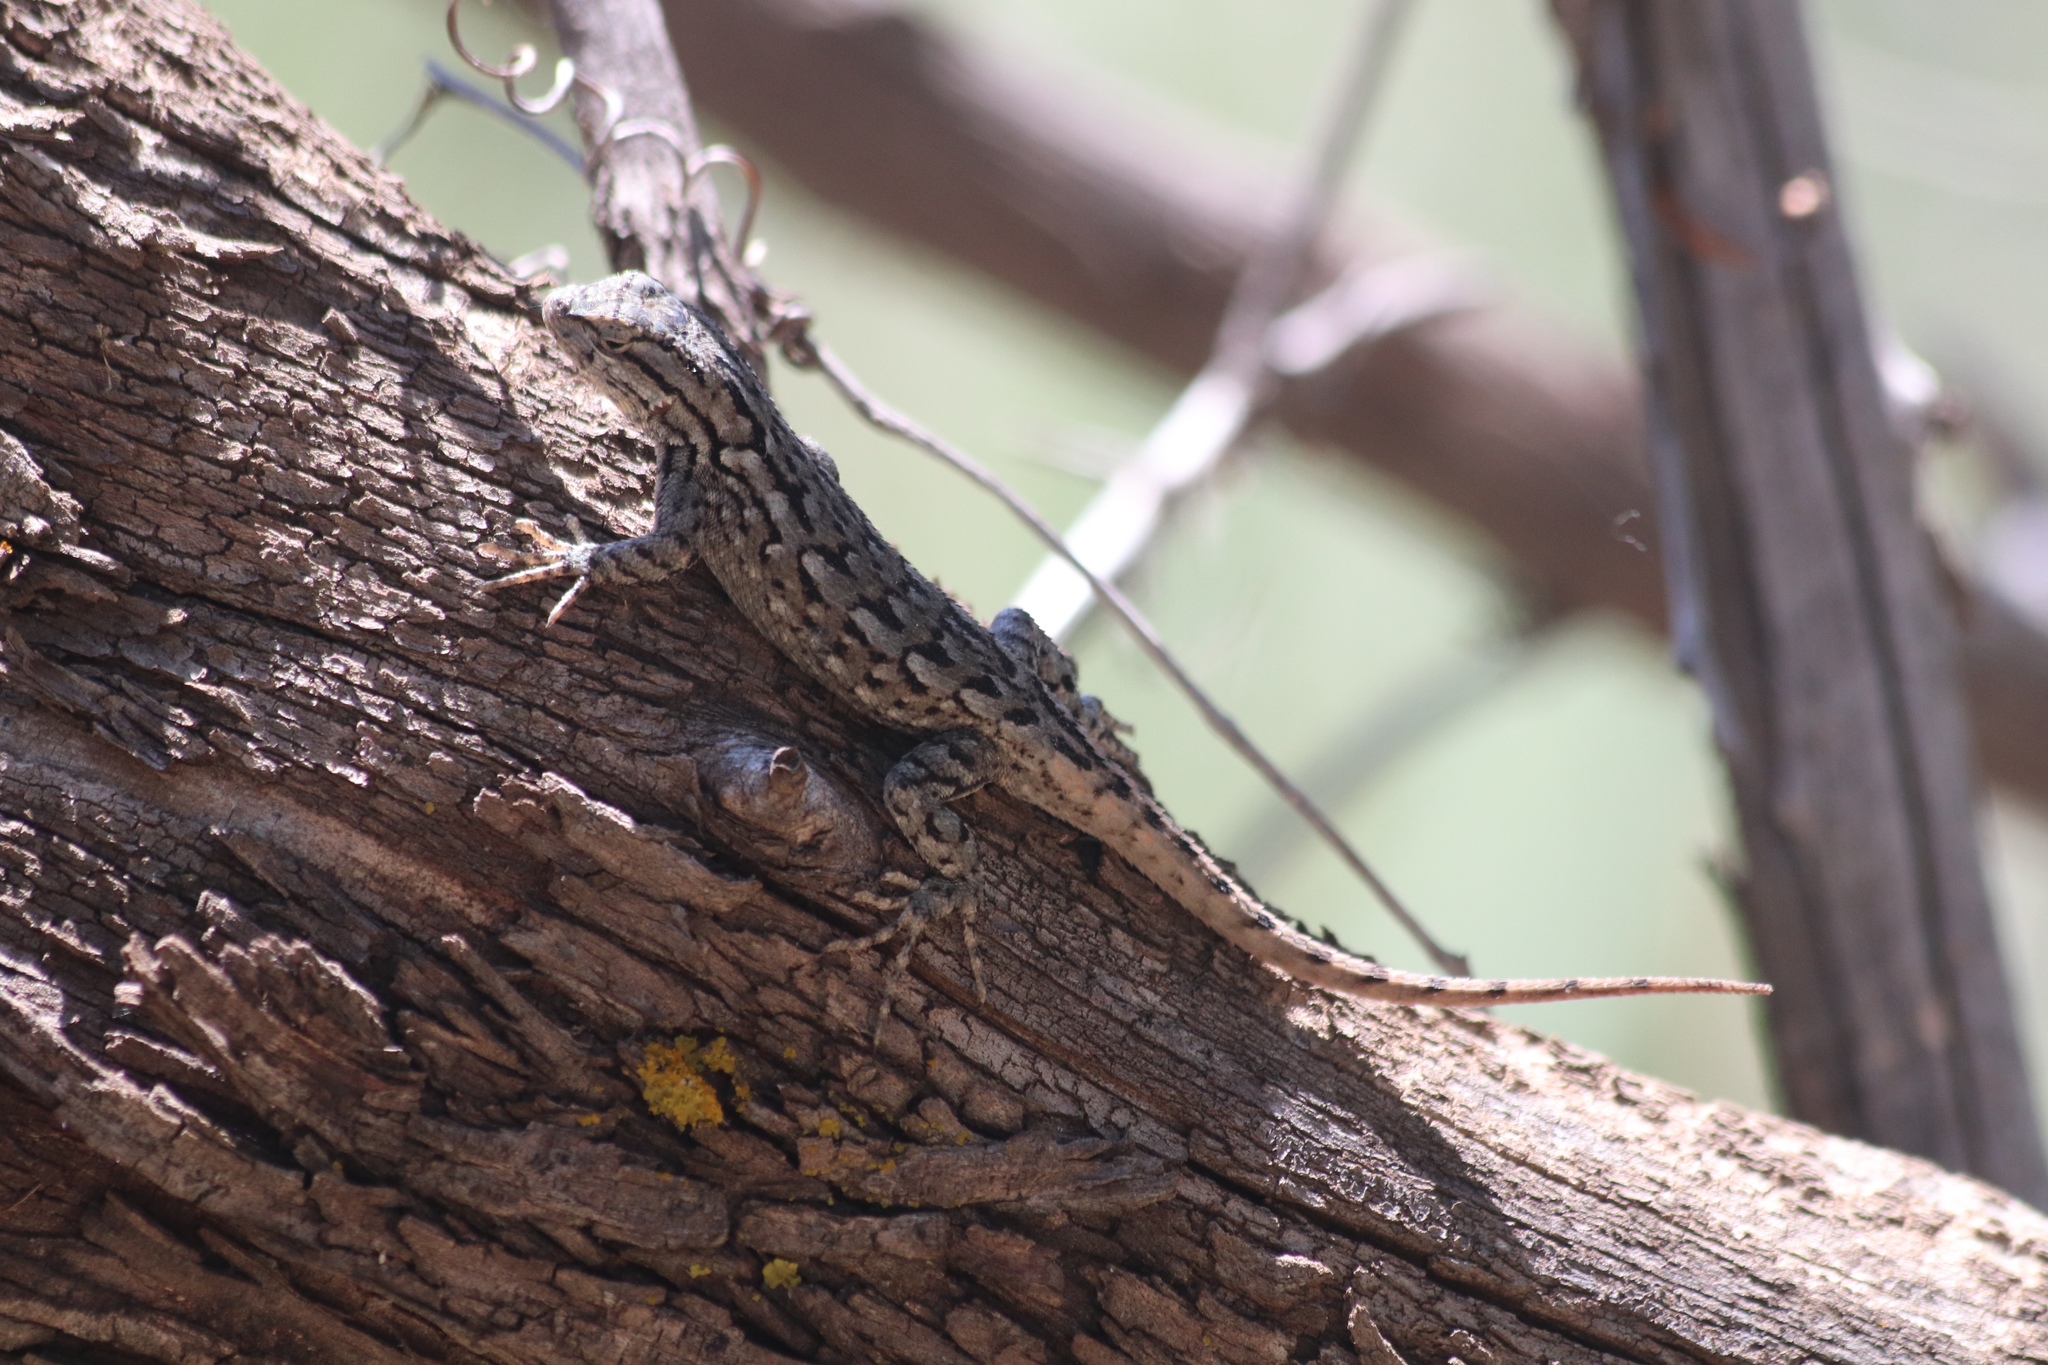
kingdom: Animalia
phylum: Chordata
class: Squamata
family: Phrynosomatidae
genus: Sceloporus
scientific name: Sceloporus consobrinus
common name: Southern prairie lizard
